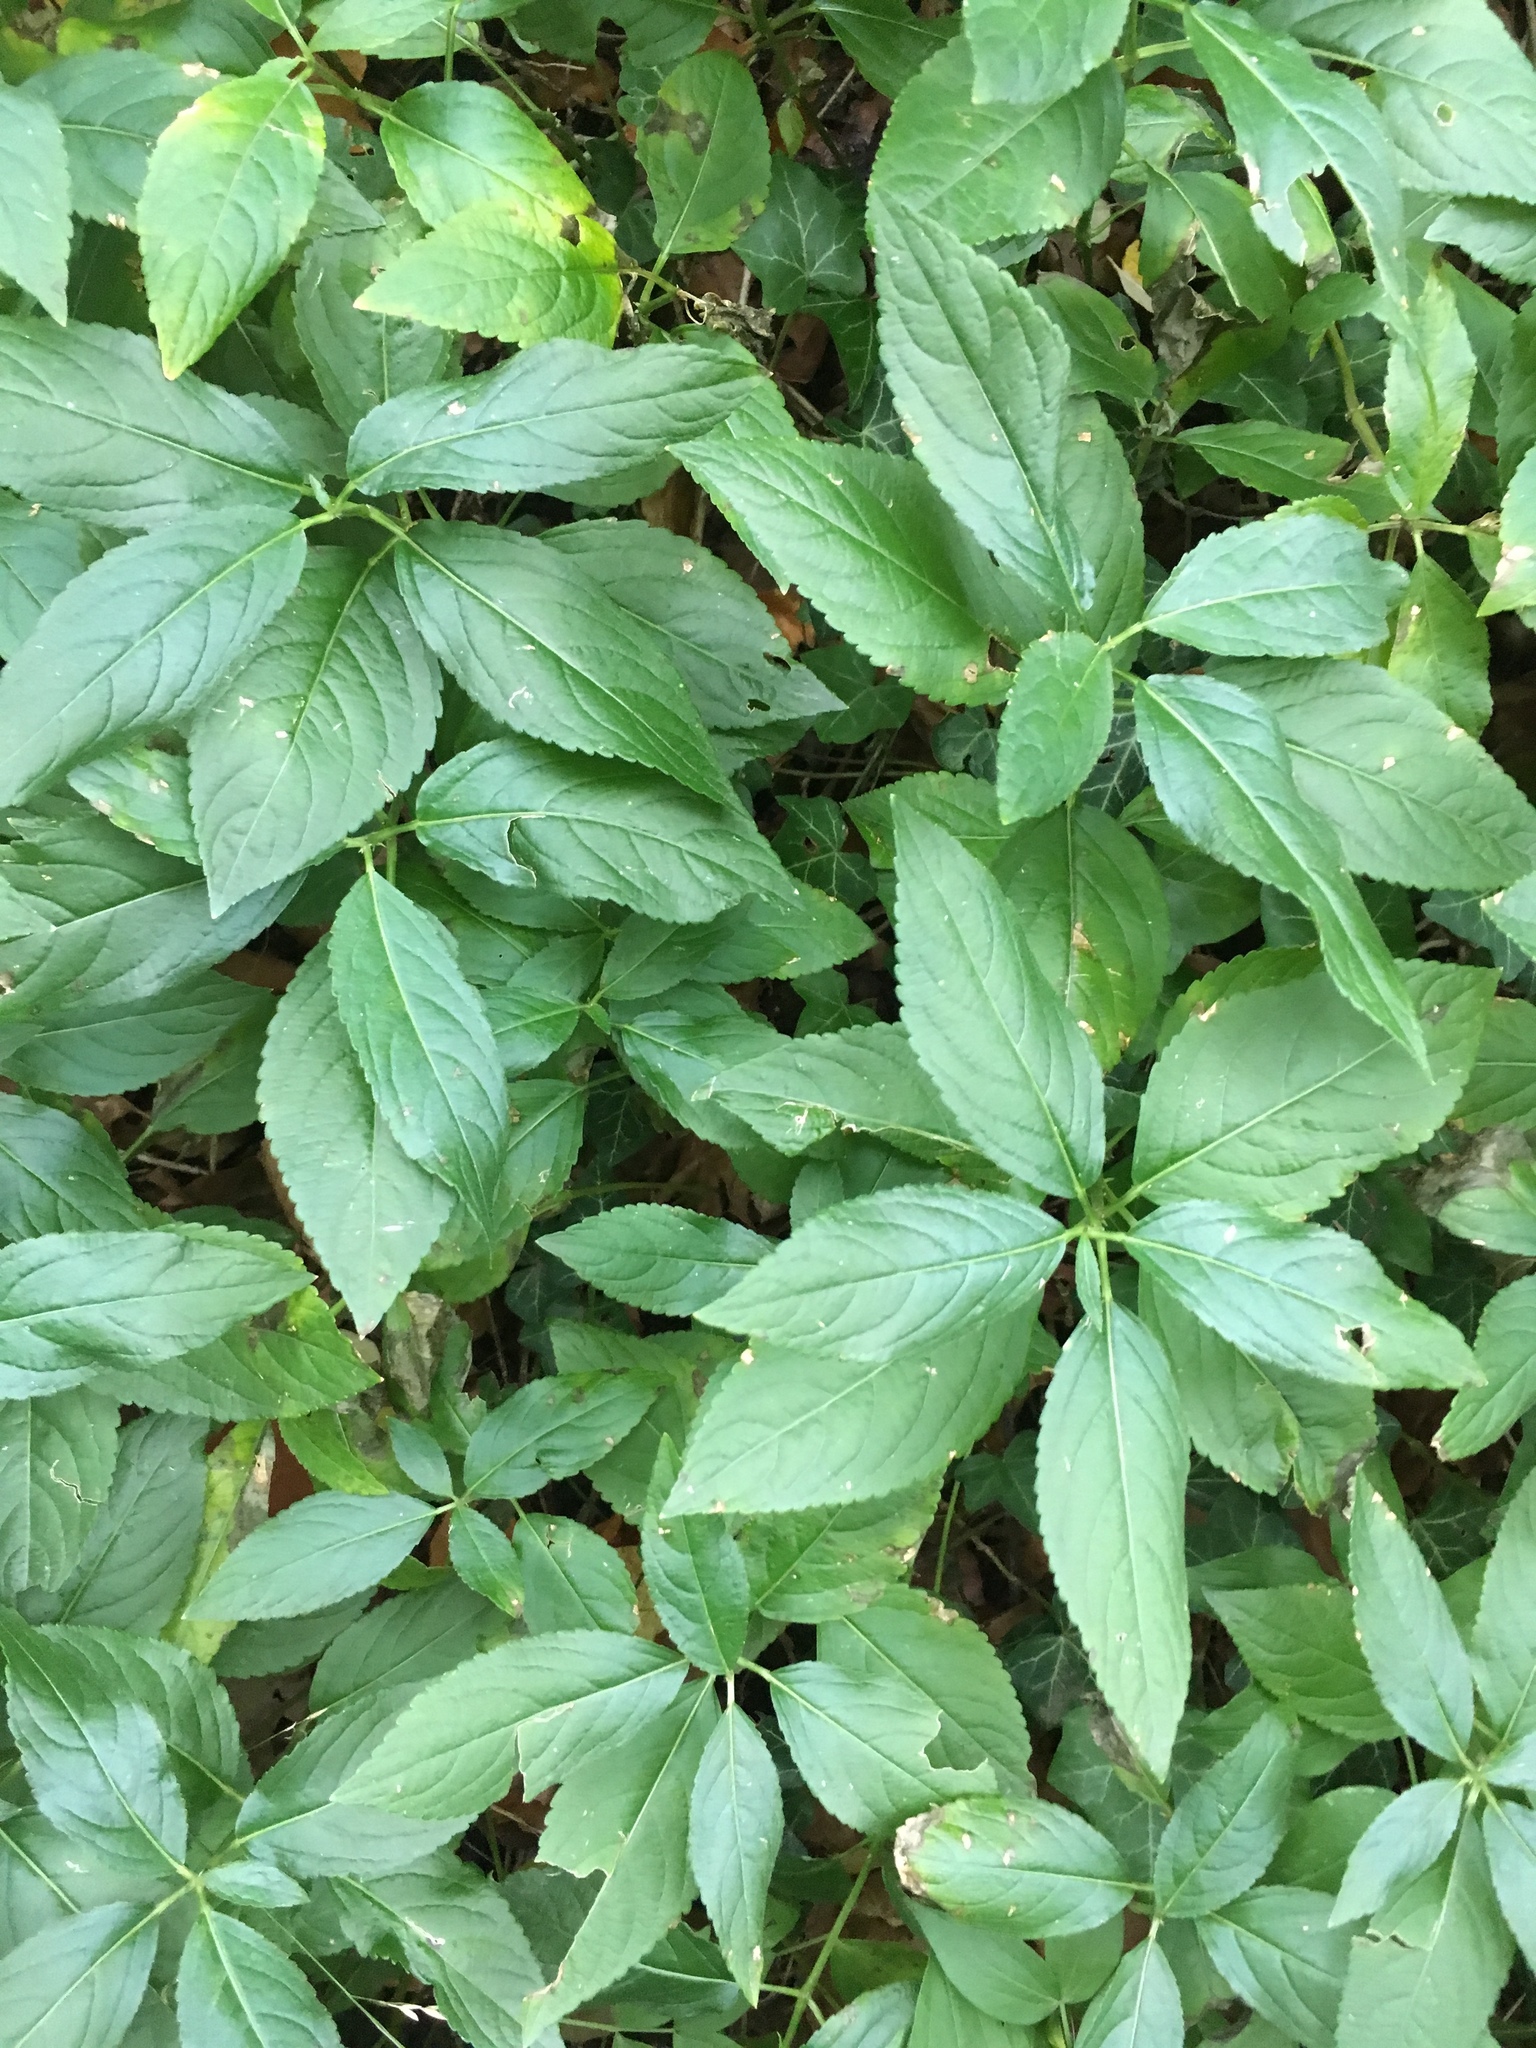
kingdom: Plantae
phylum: Tracheophyta
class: Magnoliopsida
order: Malpighiales
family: Euphorbiaceae
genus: Mercurialis
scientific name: Mercurialis perennis
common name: Dog mercury
